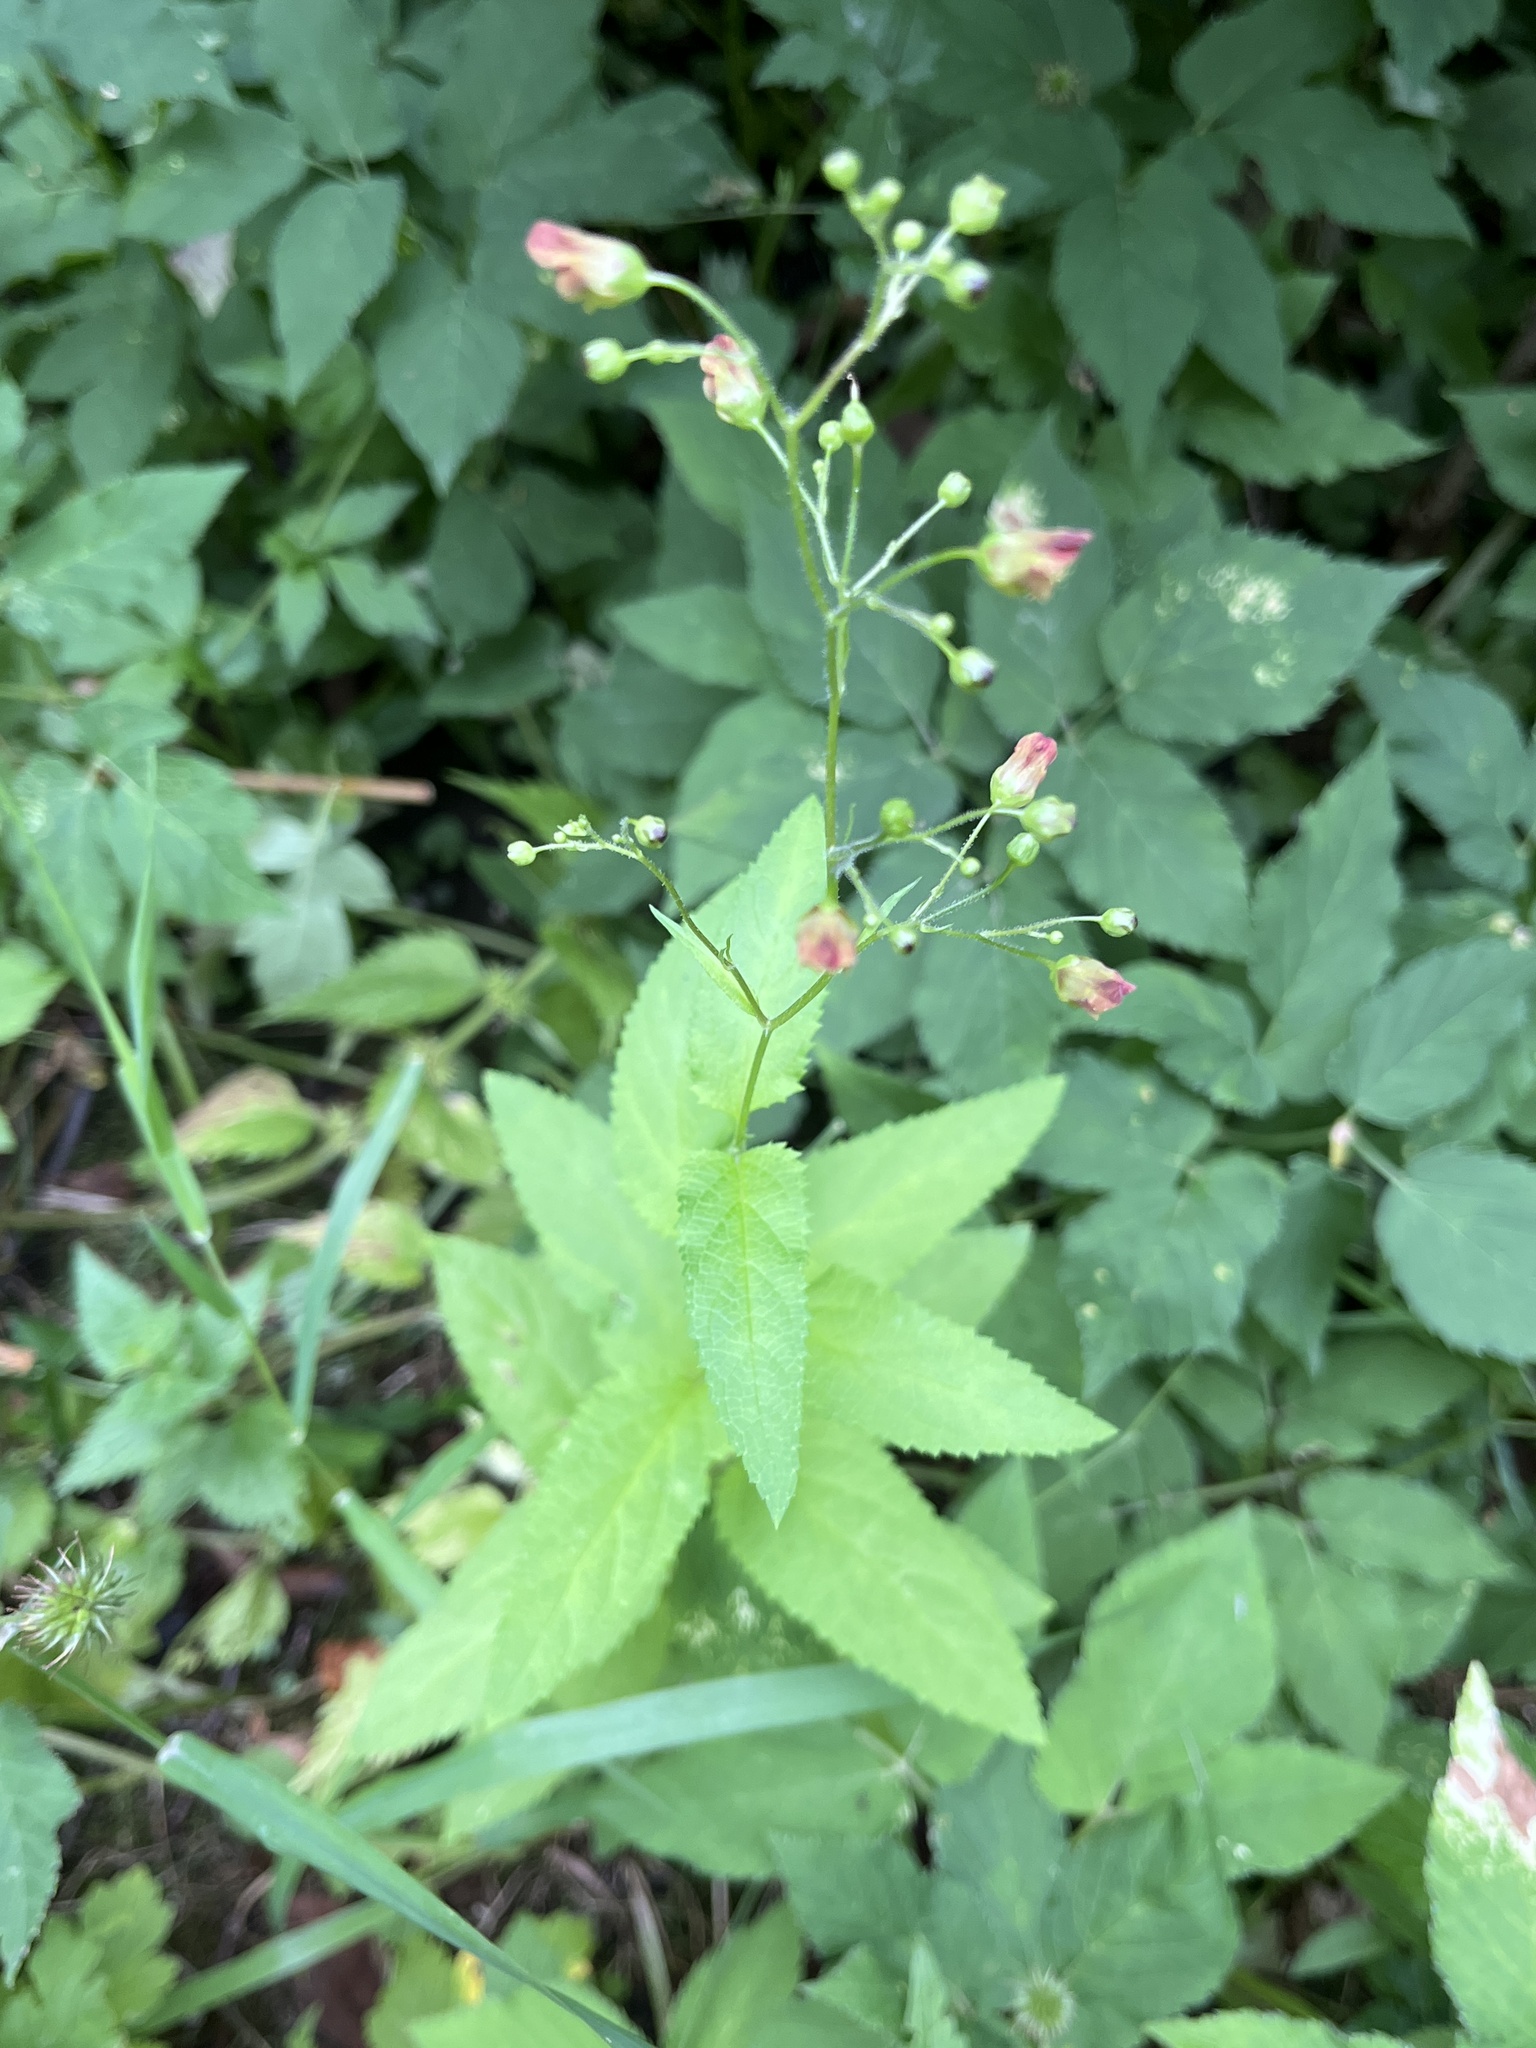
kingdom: Plantae
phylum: Tracheophyta
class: Magnoliopsida
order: Lamiales
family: Scrophulariaceae
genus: Scrophularia
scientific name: Scrophularia nodosa
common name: Common figwort
